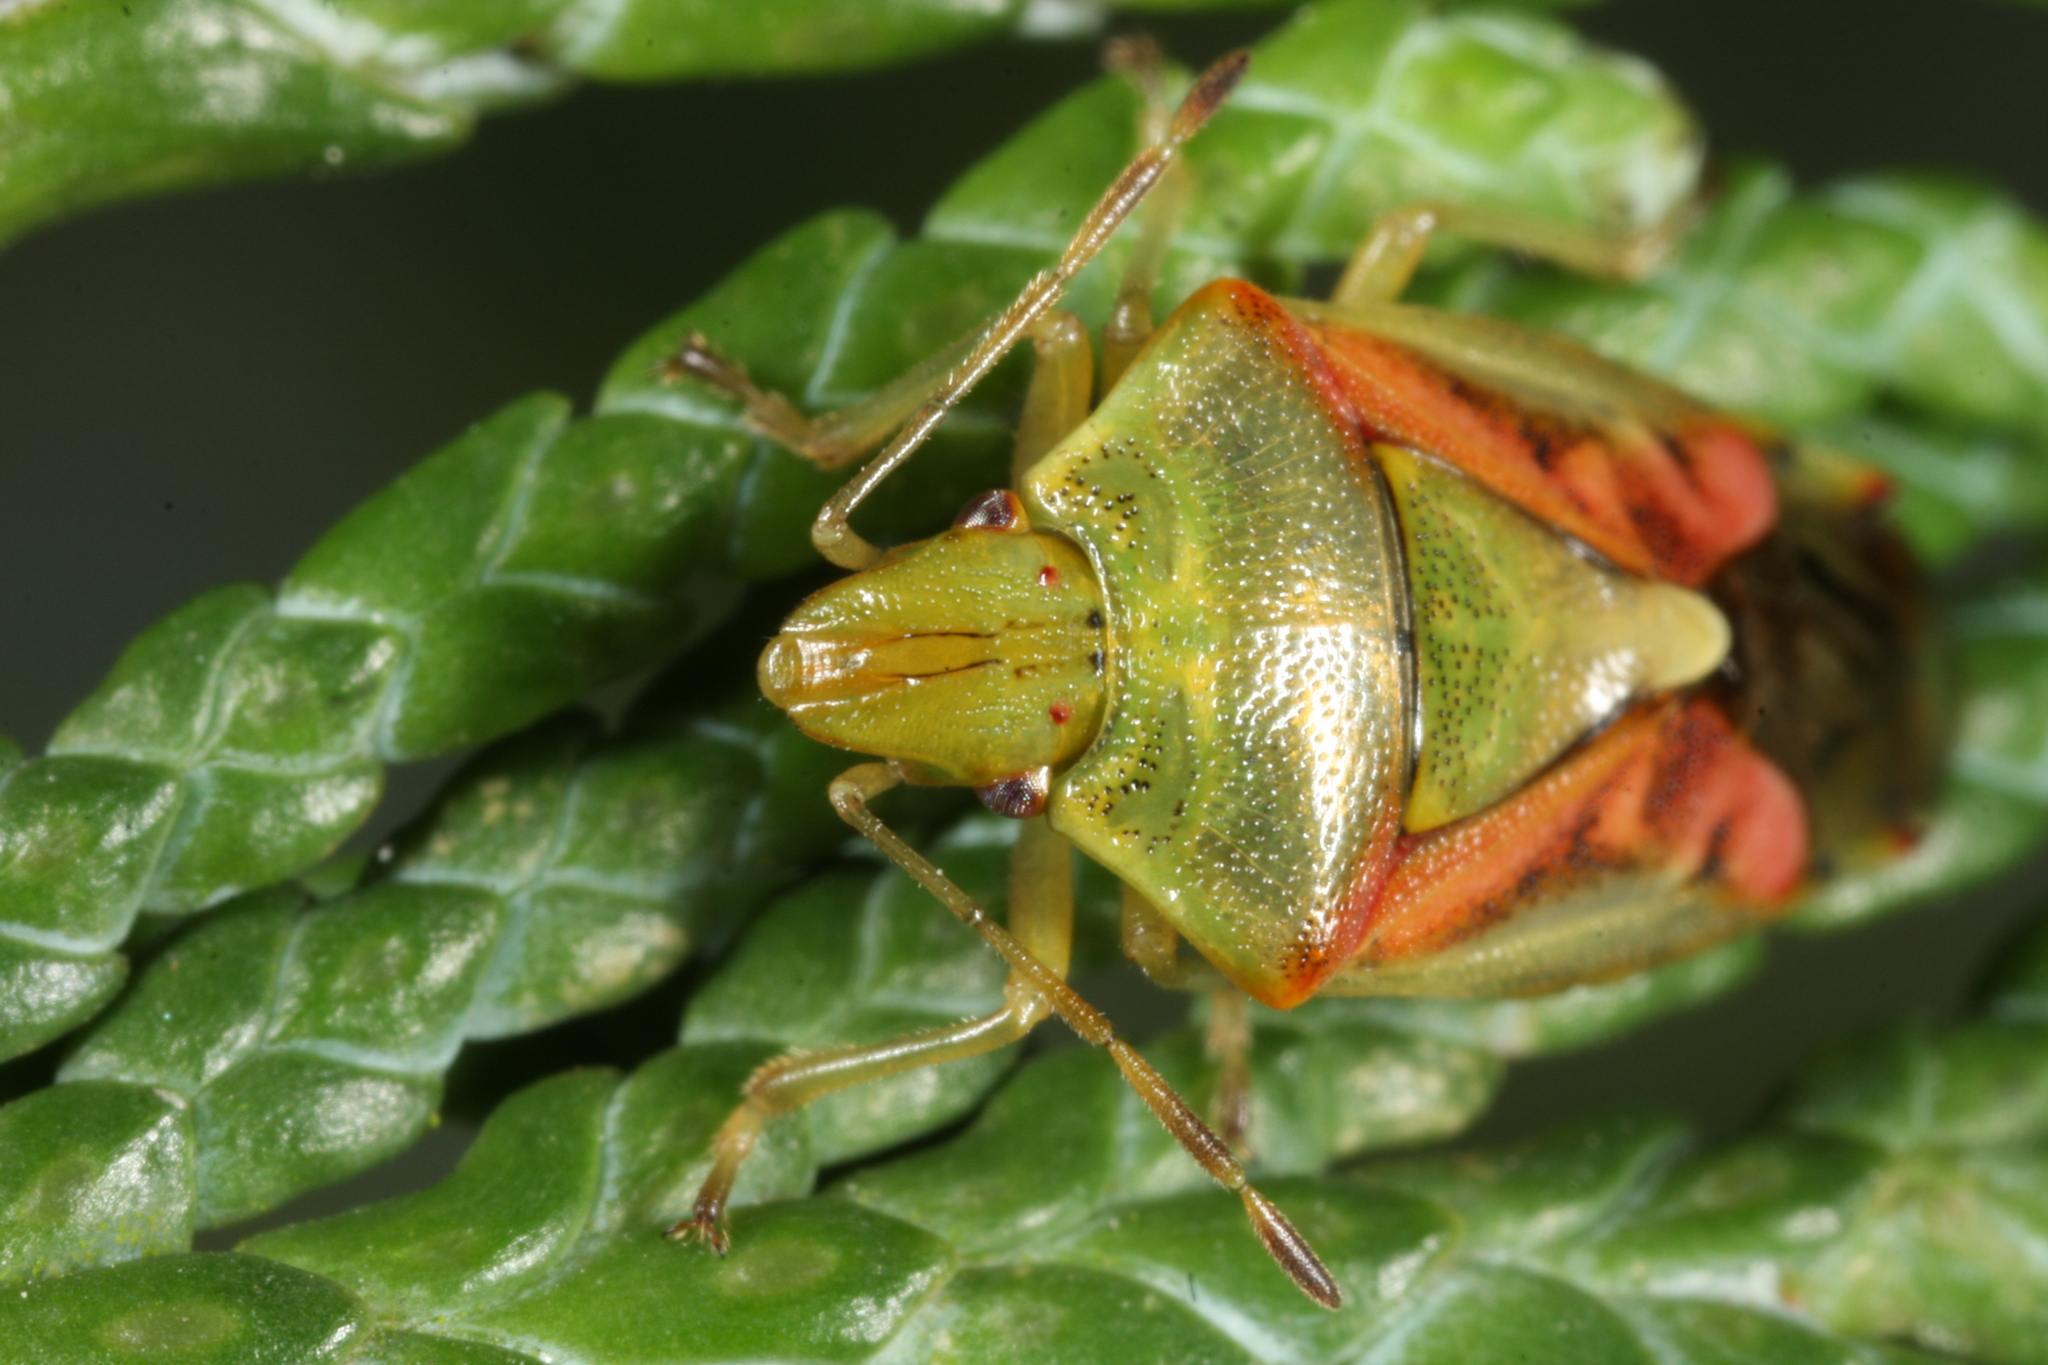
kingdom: Animalia
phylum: Arthropoda
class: Insecta
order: Hemiptera
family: Acanthosomatidae
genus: Cyphostethus
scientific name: Cyphostethus tristriatus
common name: Juniper shieldbug
